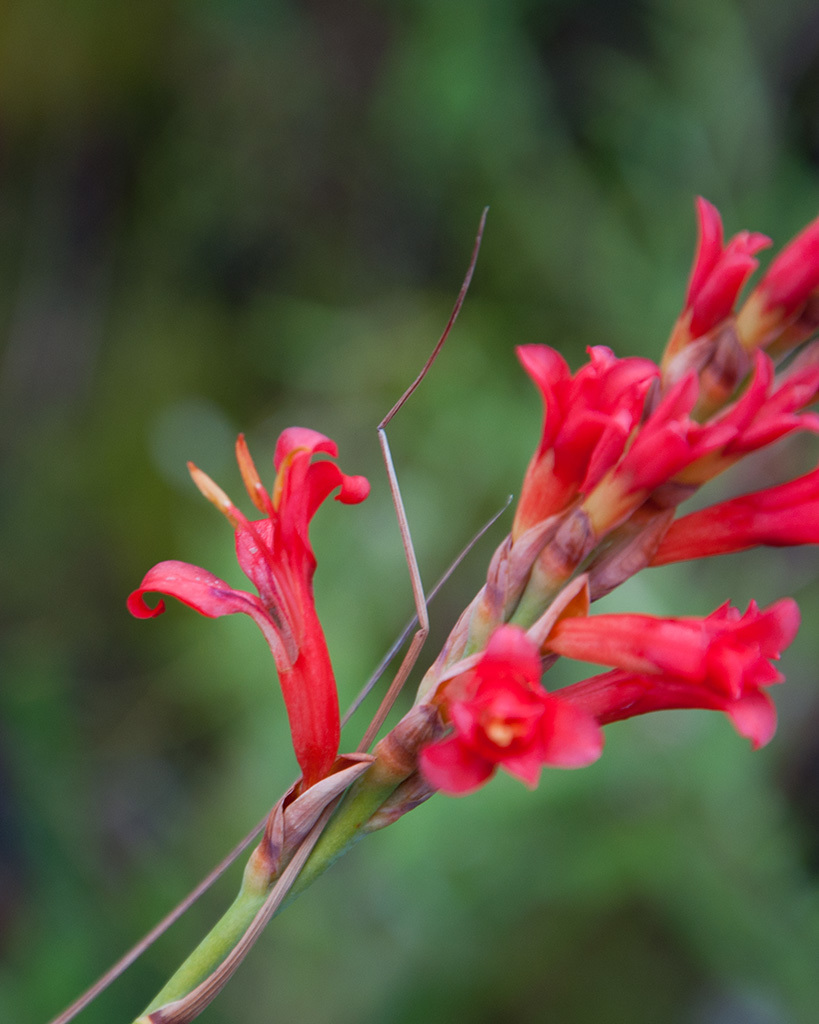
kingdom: Plantae
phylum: Tracheophyta
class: Liliopsida
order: Asparagales
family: Iridaceae
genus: Tritoniopsis
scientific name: Tritoniopsis triticea
